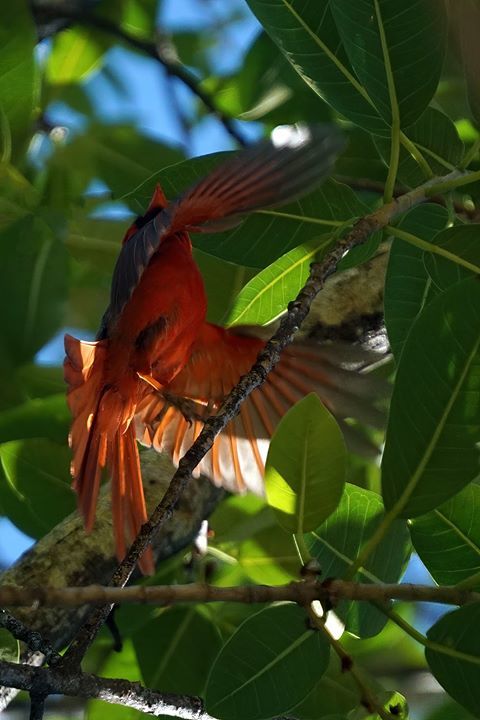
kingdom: Animalia
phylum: Chordata
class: Aves
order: Passeriformes
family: Cardinalidae
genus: Cardinalis
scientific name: Cardinalis cardinalis
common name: Northern cardinal
